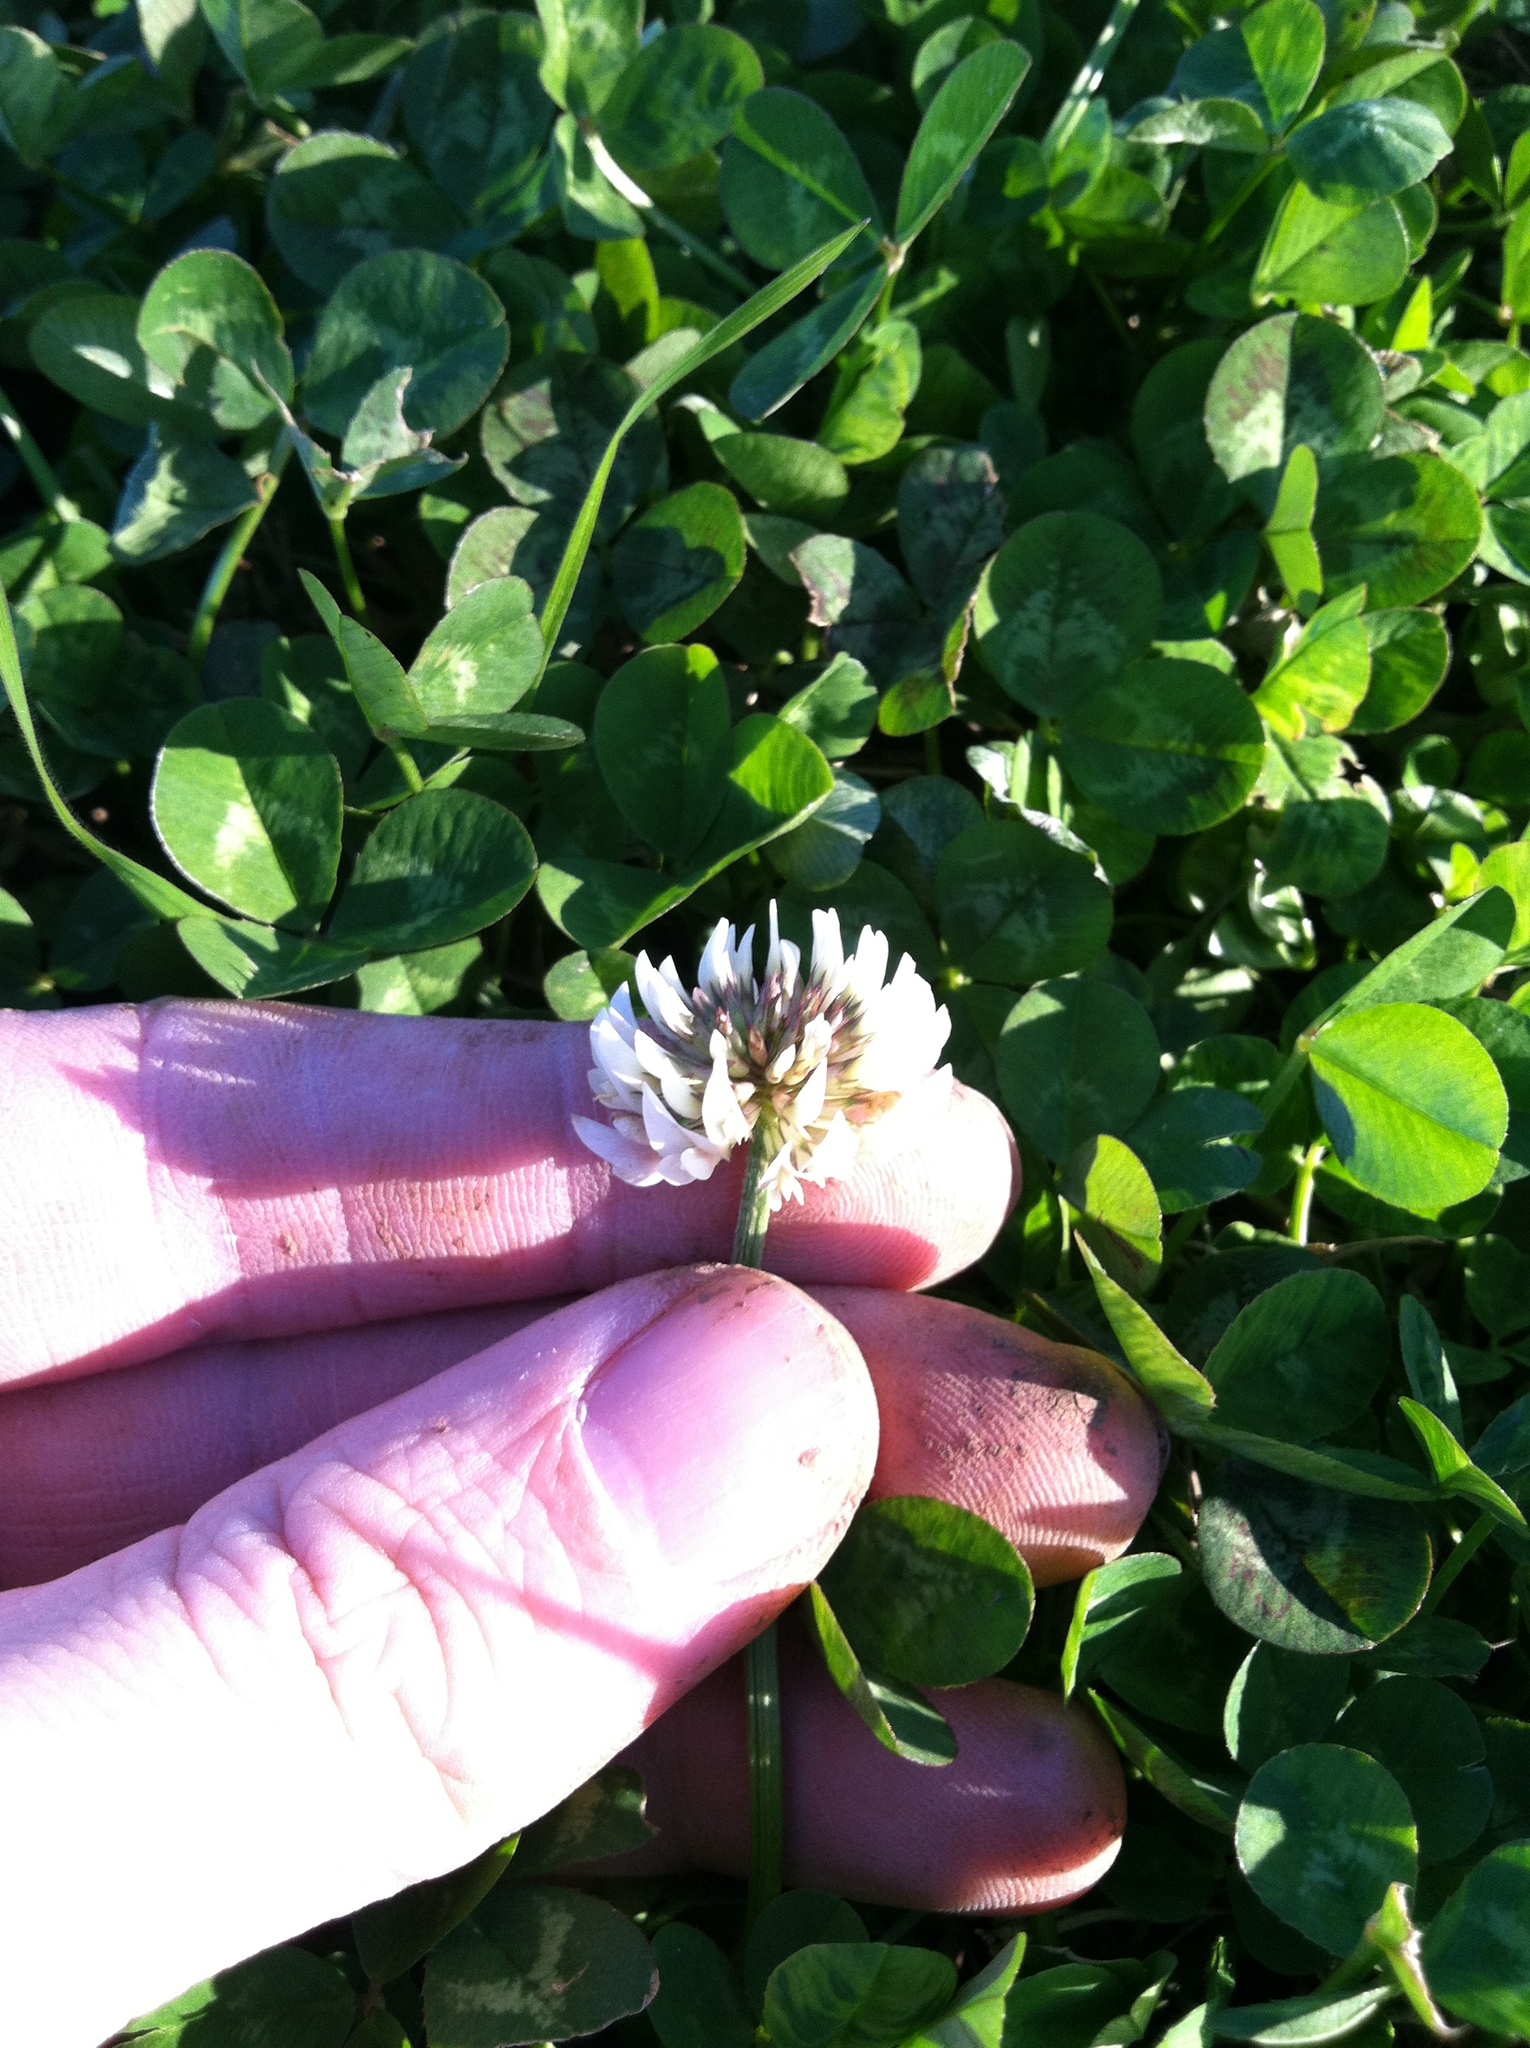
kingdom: Plantae
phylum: Tracheophyta
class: Magnoliopsida
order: Fabales
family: Fabaceae
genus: Trifolium
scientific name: Trifolium repens
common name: White clover
